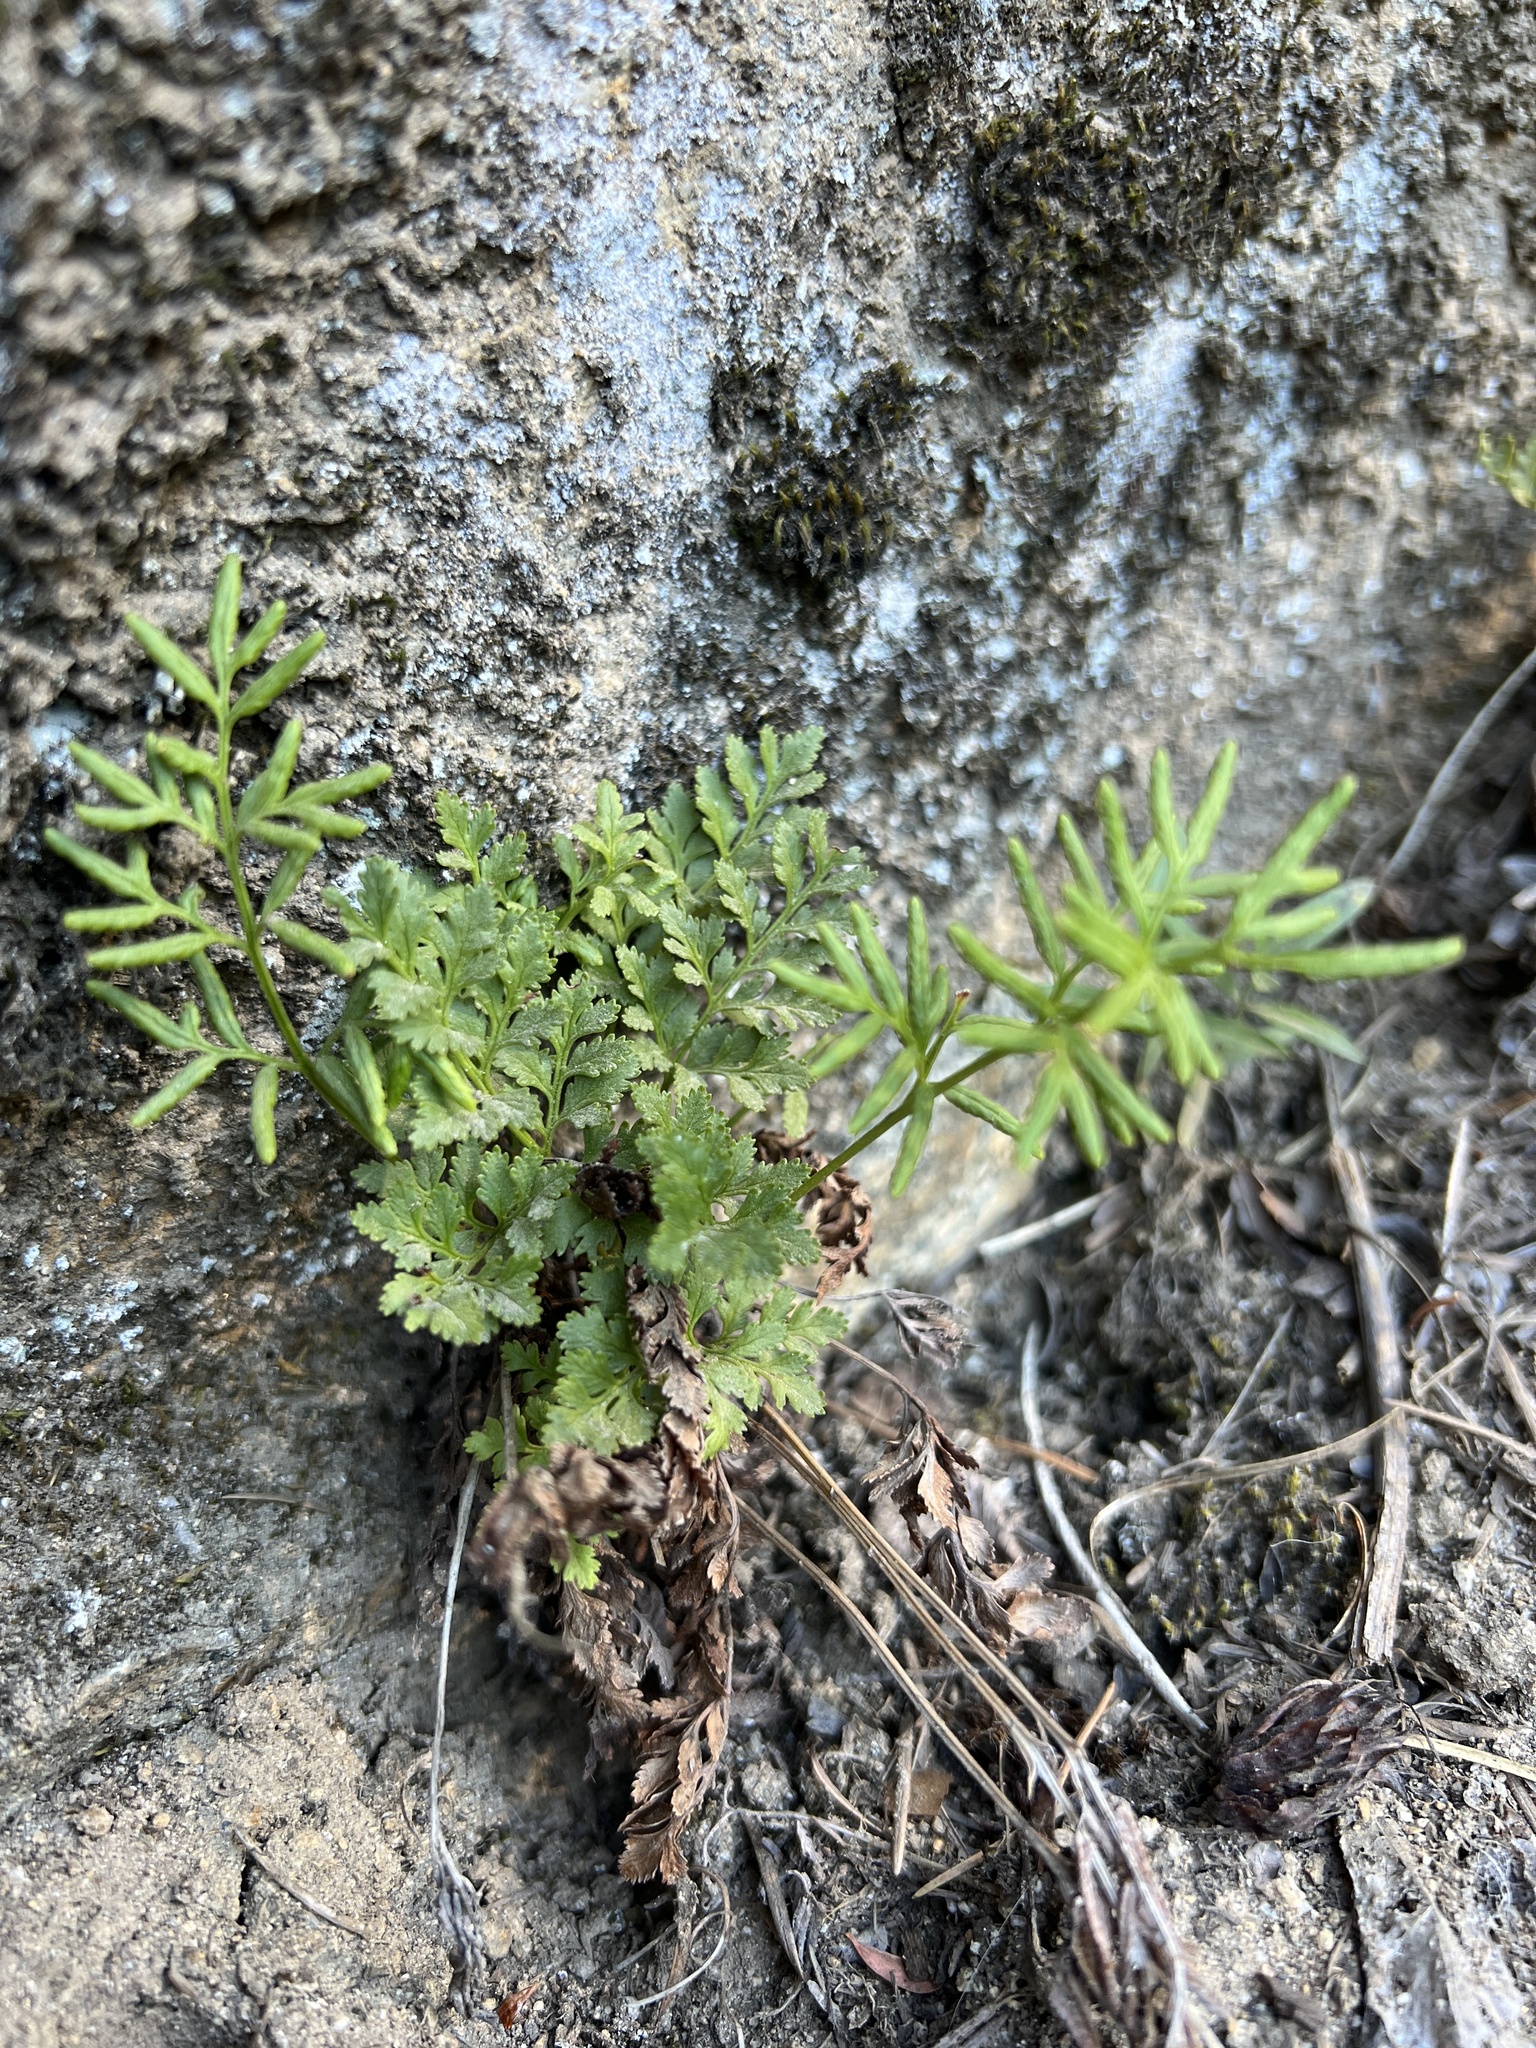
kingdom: Plantae
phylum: Tracheophyta
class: Polypodiopsida
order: Polypodiales
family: Pteridaceae
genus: Cryptogramma
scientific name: Cryptogramma acrostichoides
